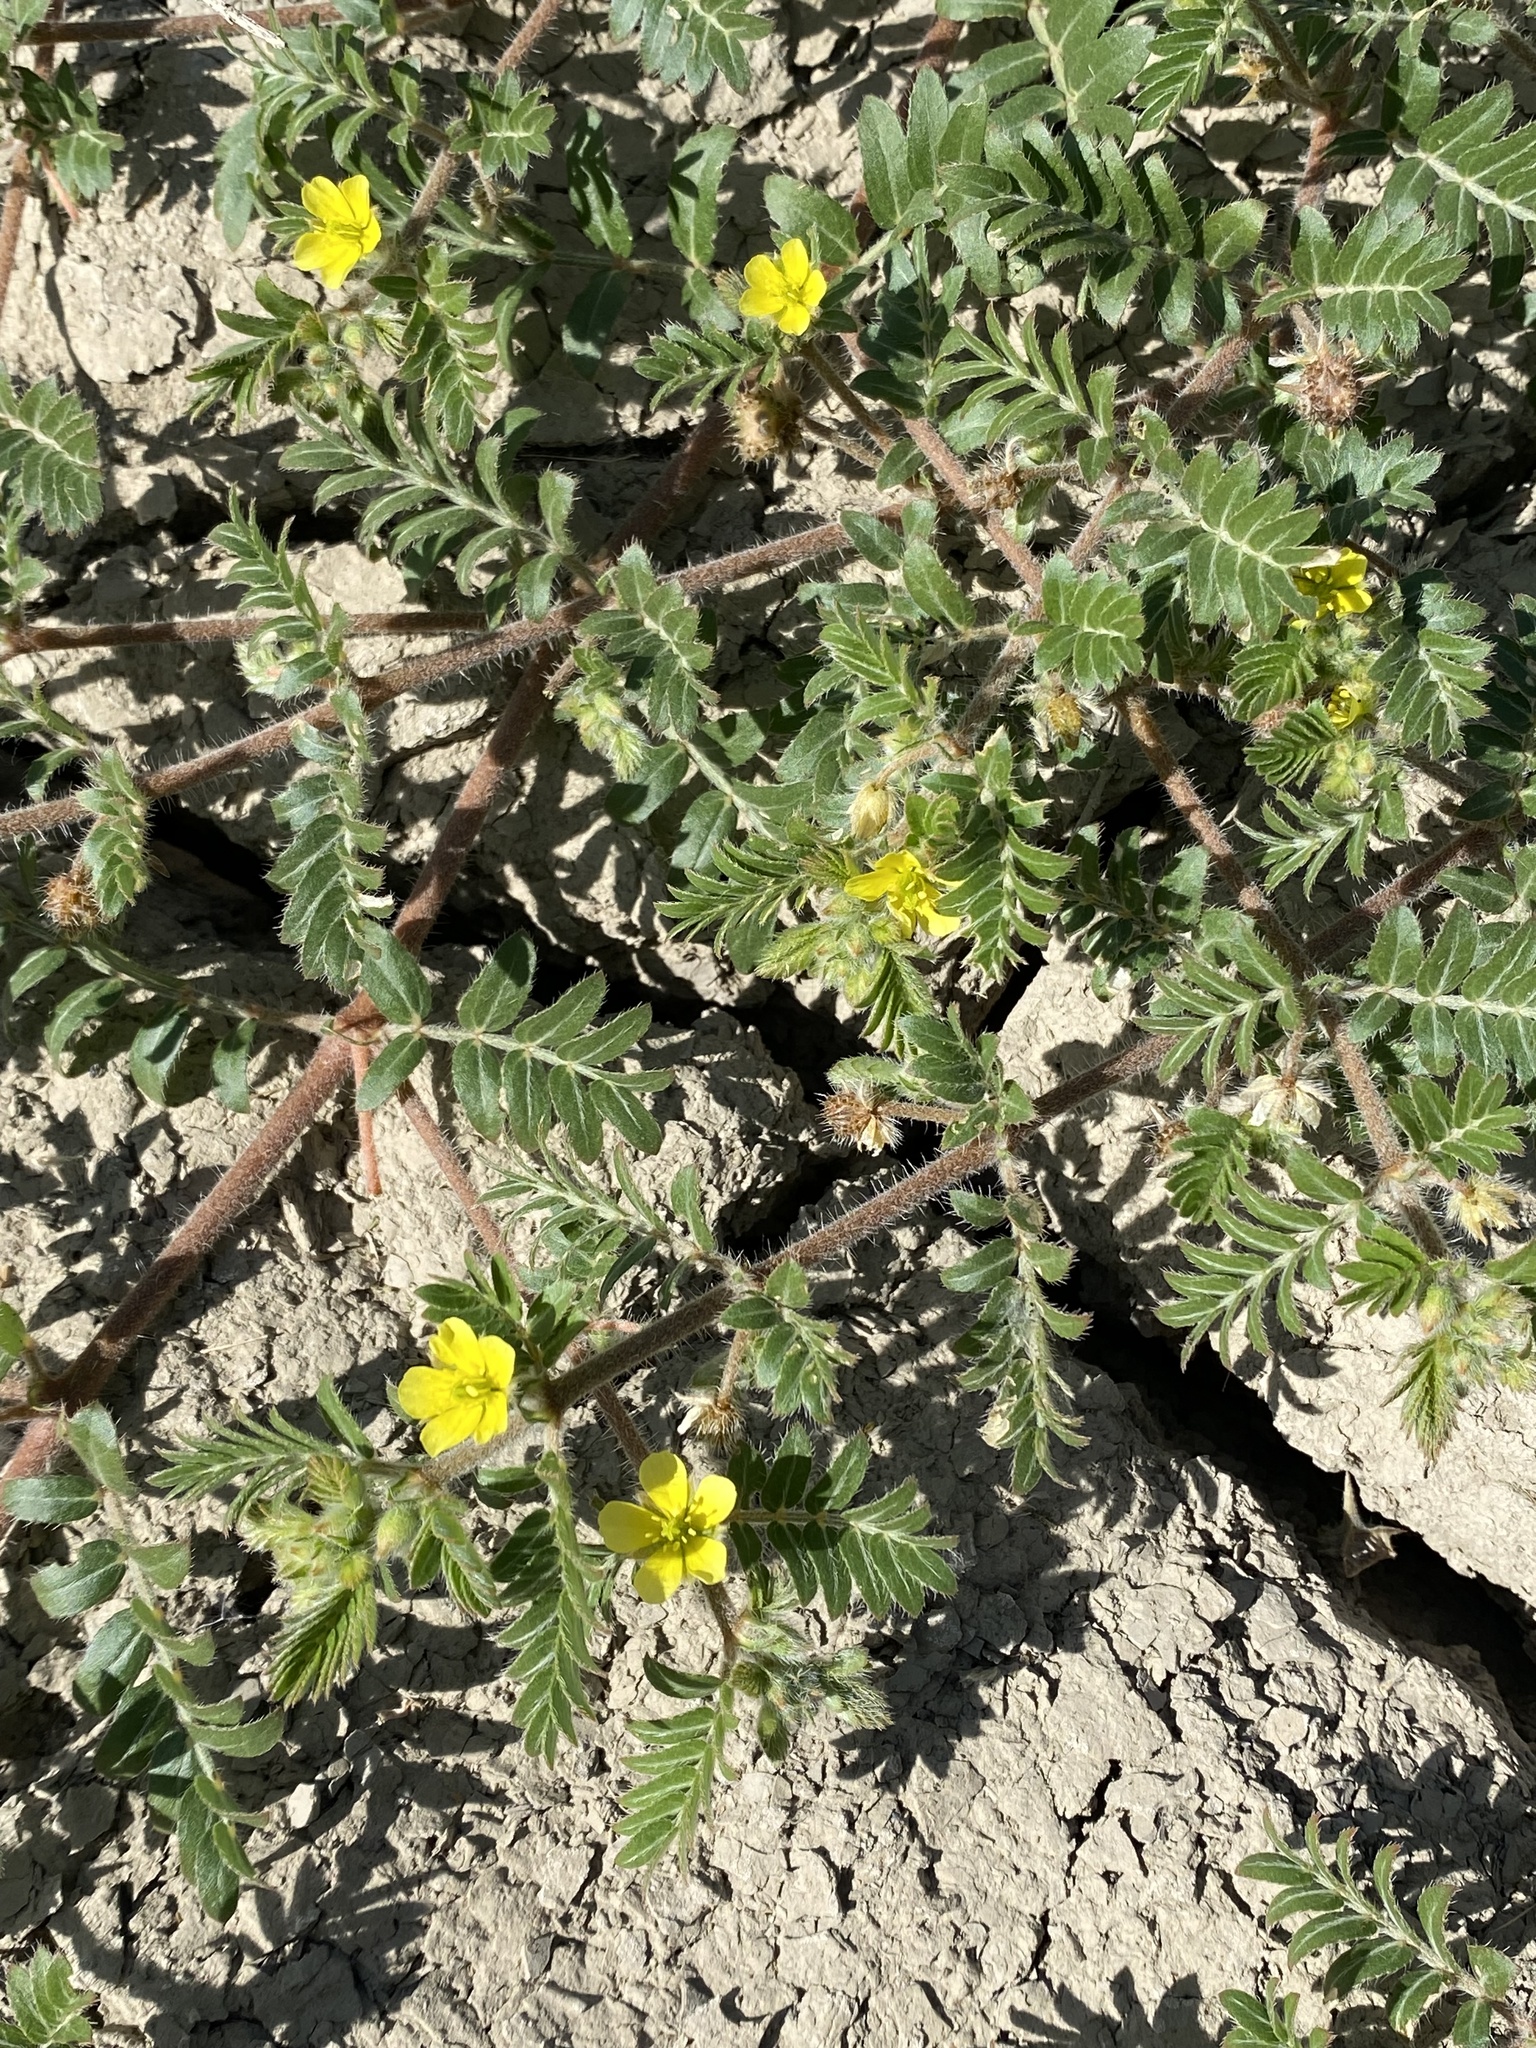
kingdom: Plantae
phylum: Tracheophyta
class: Magnoliopsida
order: Zygophyllales
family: Zygophyllaceae
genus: Tribulus
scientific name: Tribulus terrestris
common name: Puncturevine
